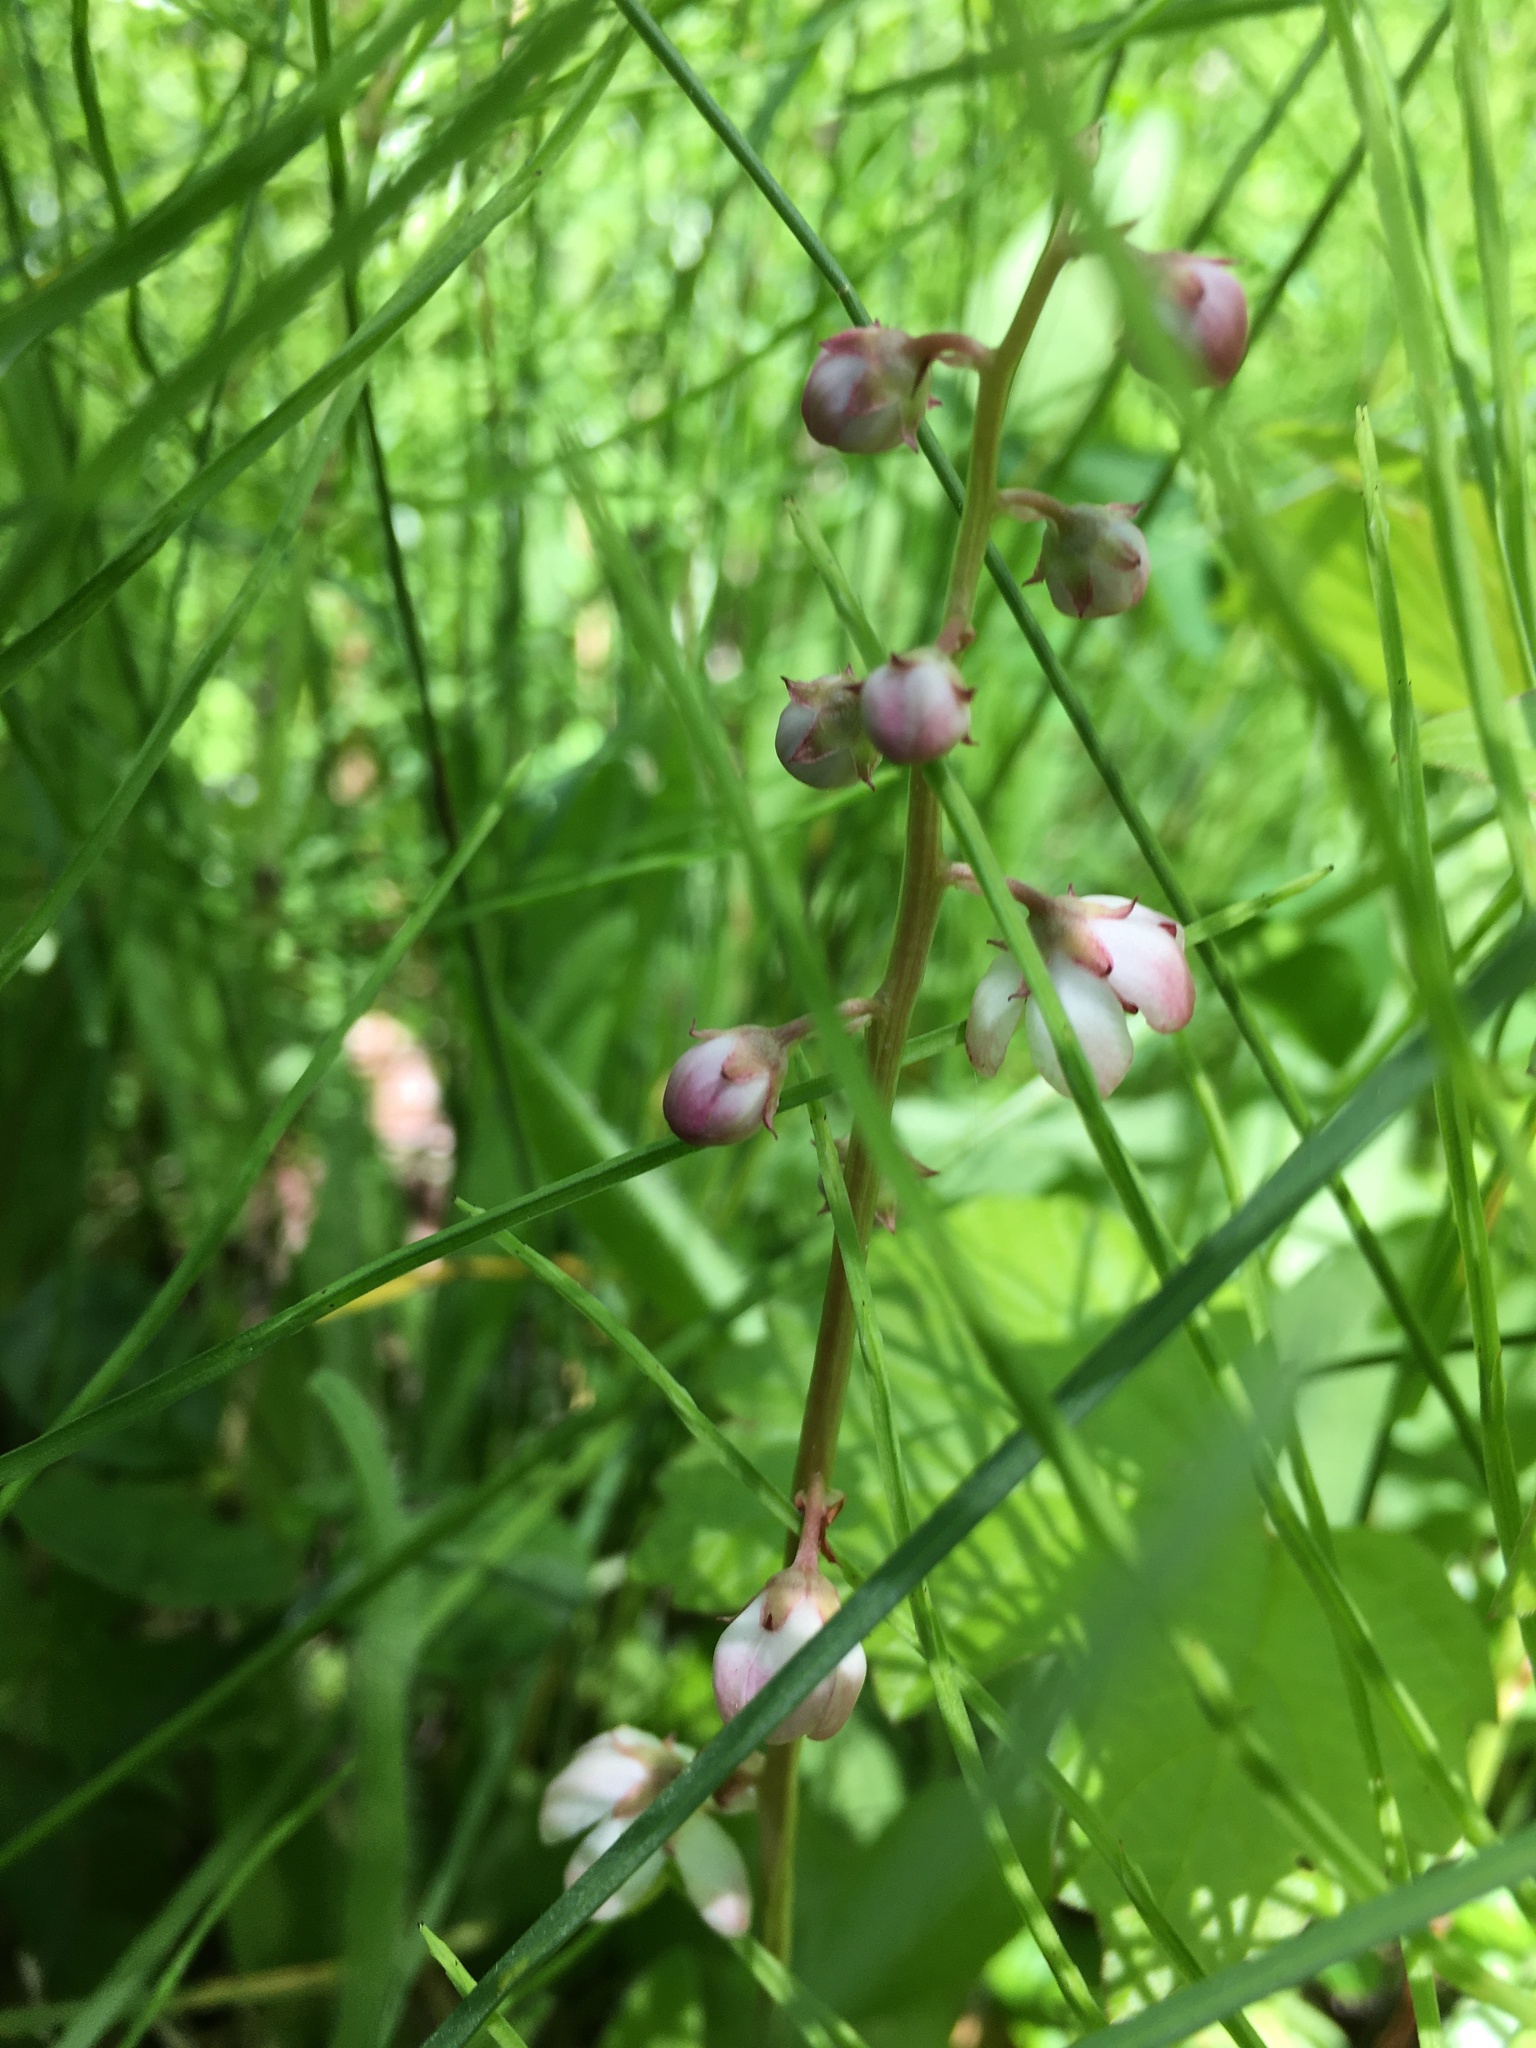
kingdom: Plantae
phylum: Tracheophyta
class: Magnoliopsida
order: Ericales
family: Ericaceae
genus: Pyrola
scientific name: Pyrola asarifolia
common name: Bog wintergreen
